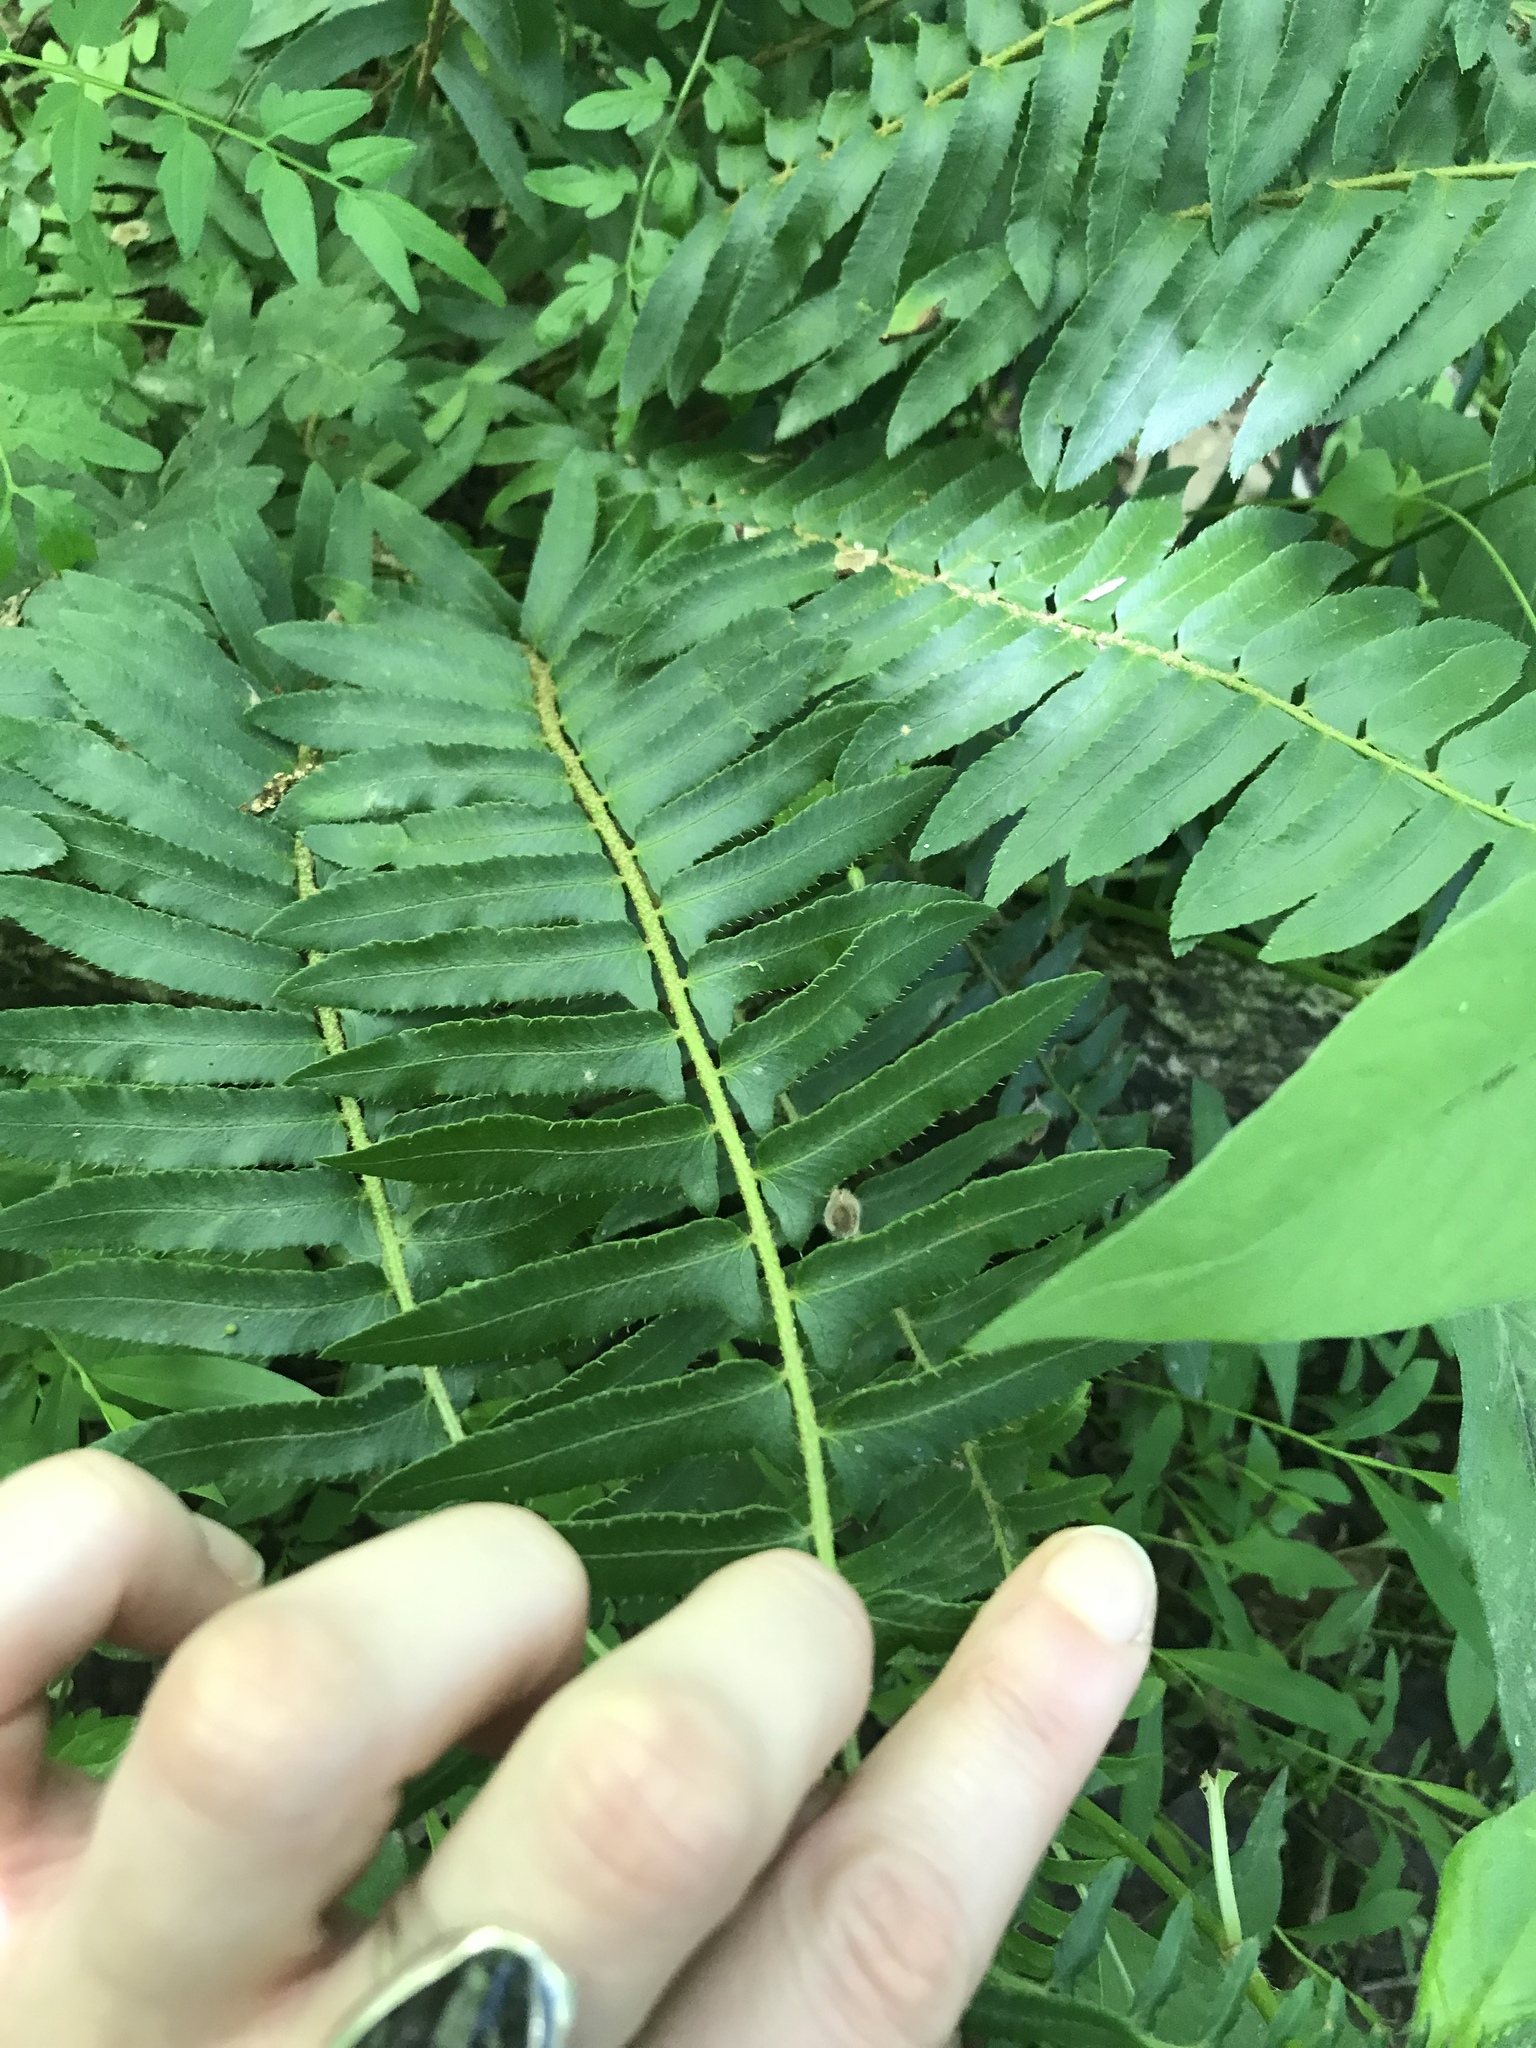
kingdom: Plantae
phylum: Tracheophyta
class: Polypodiopsida
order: Polypodiales
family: Dryopteridaceae
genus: Polystichum
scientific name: Polystichum acrostichoides
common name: Christmas fern
